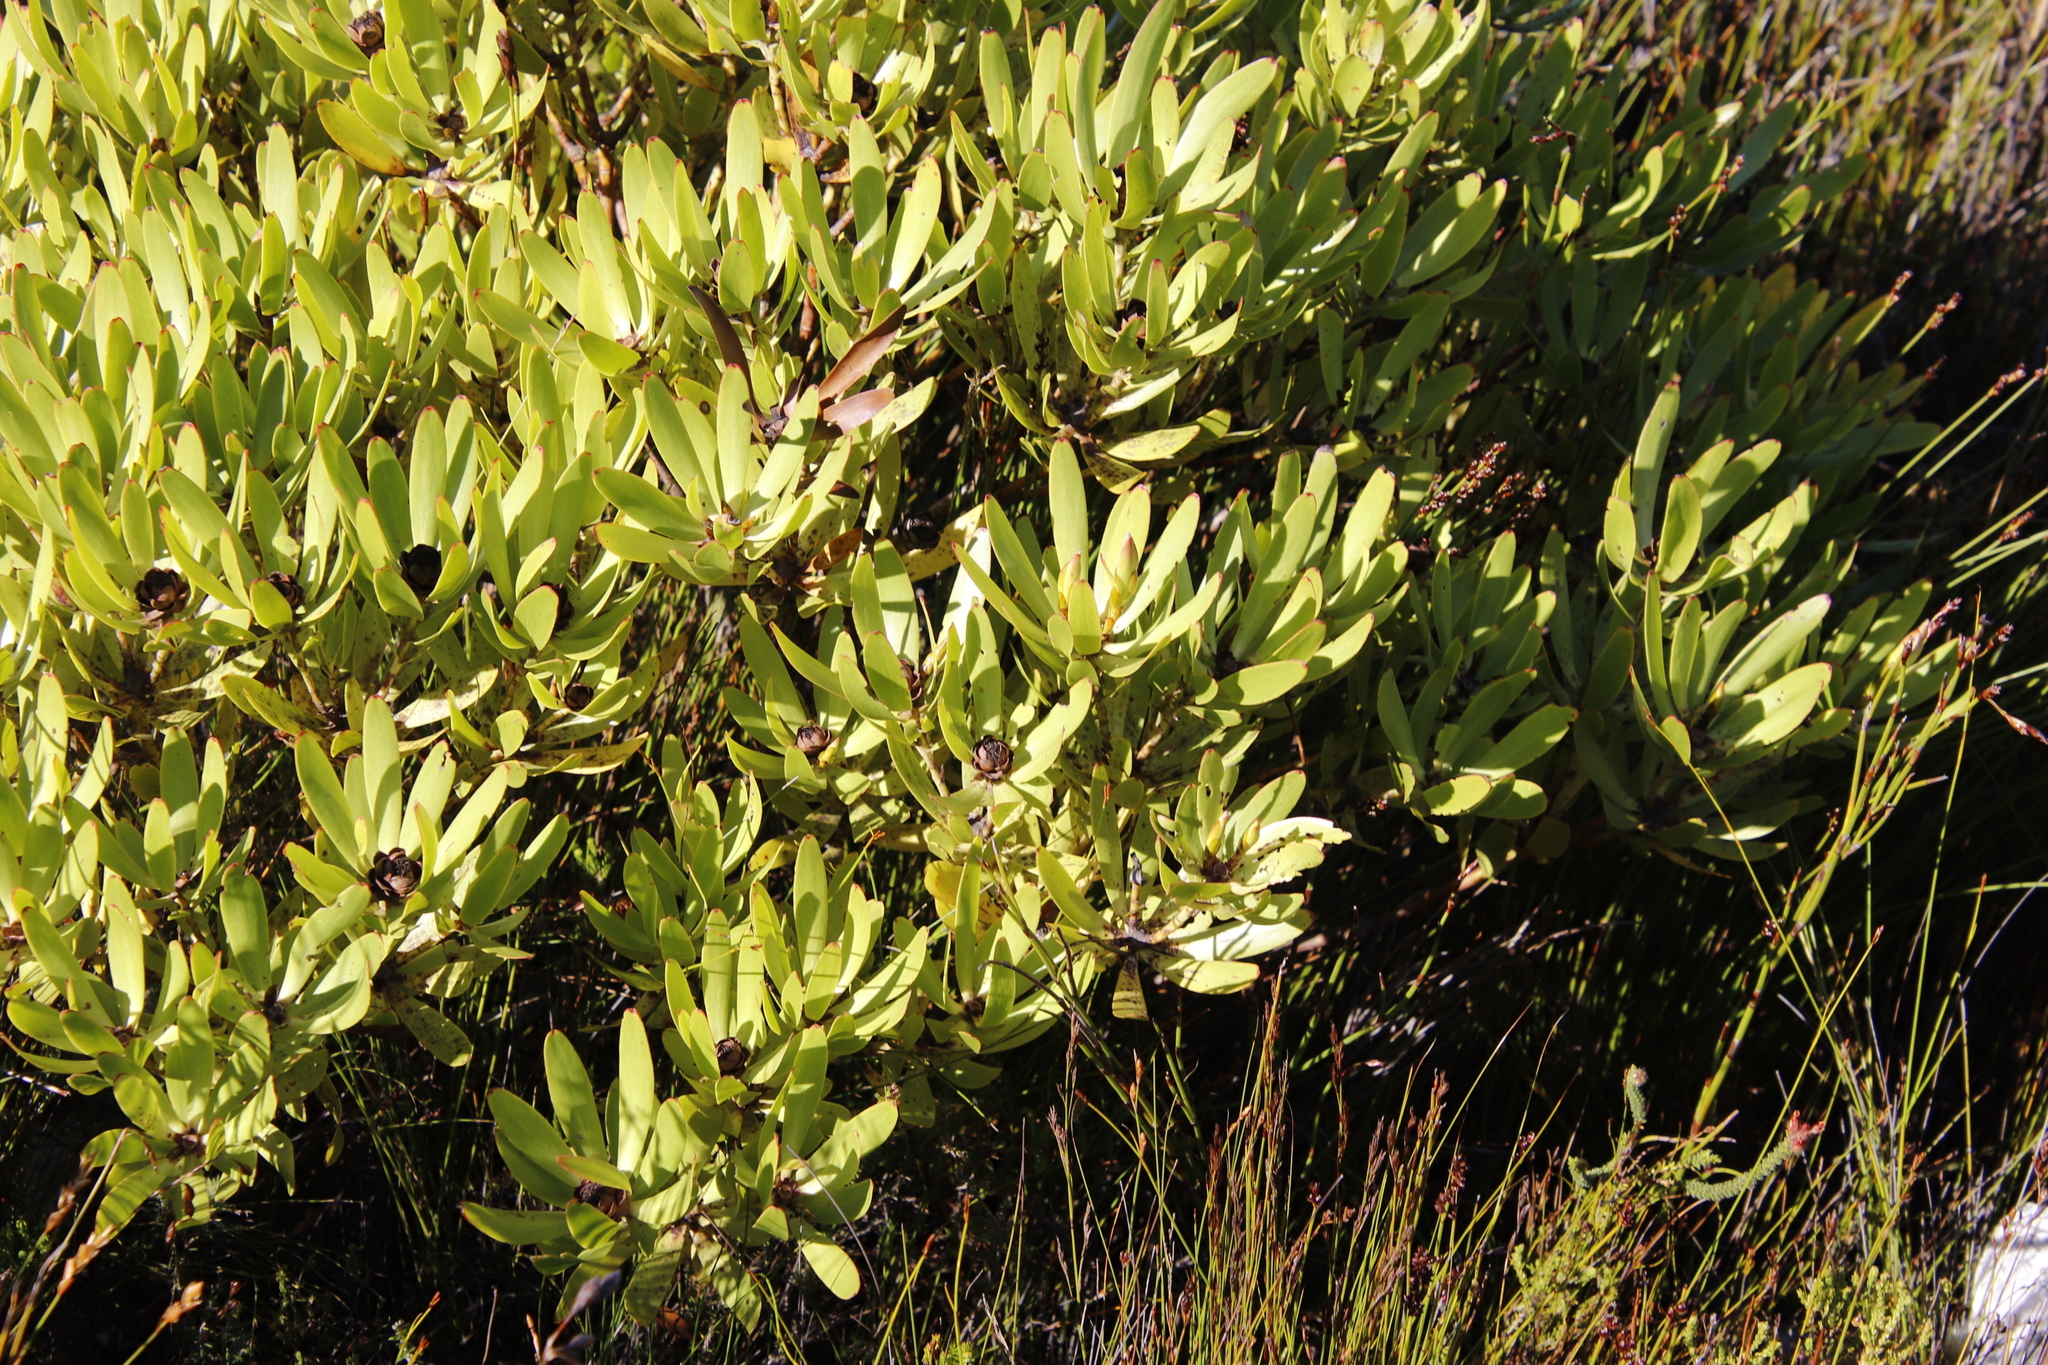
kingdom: Plantae
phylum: Tracheophyta
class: Magnoliopsida
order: Proteales
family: Proteaceae
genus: Leucadendron
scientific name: Leucadendron microcephalum
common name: Oilbract conebush
